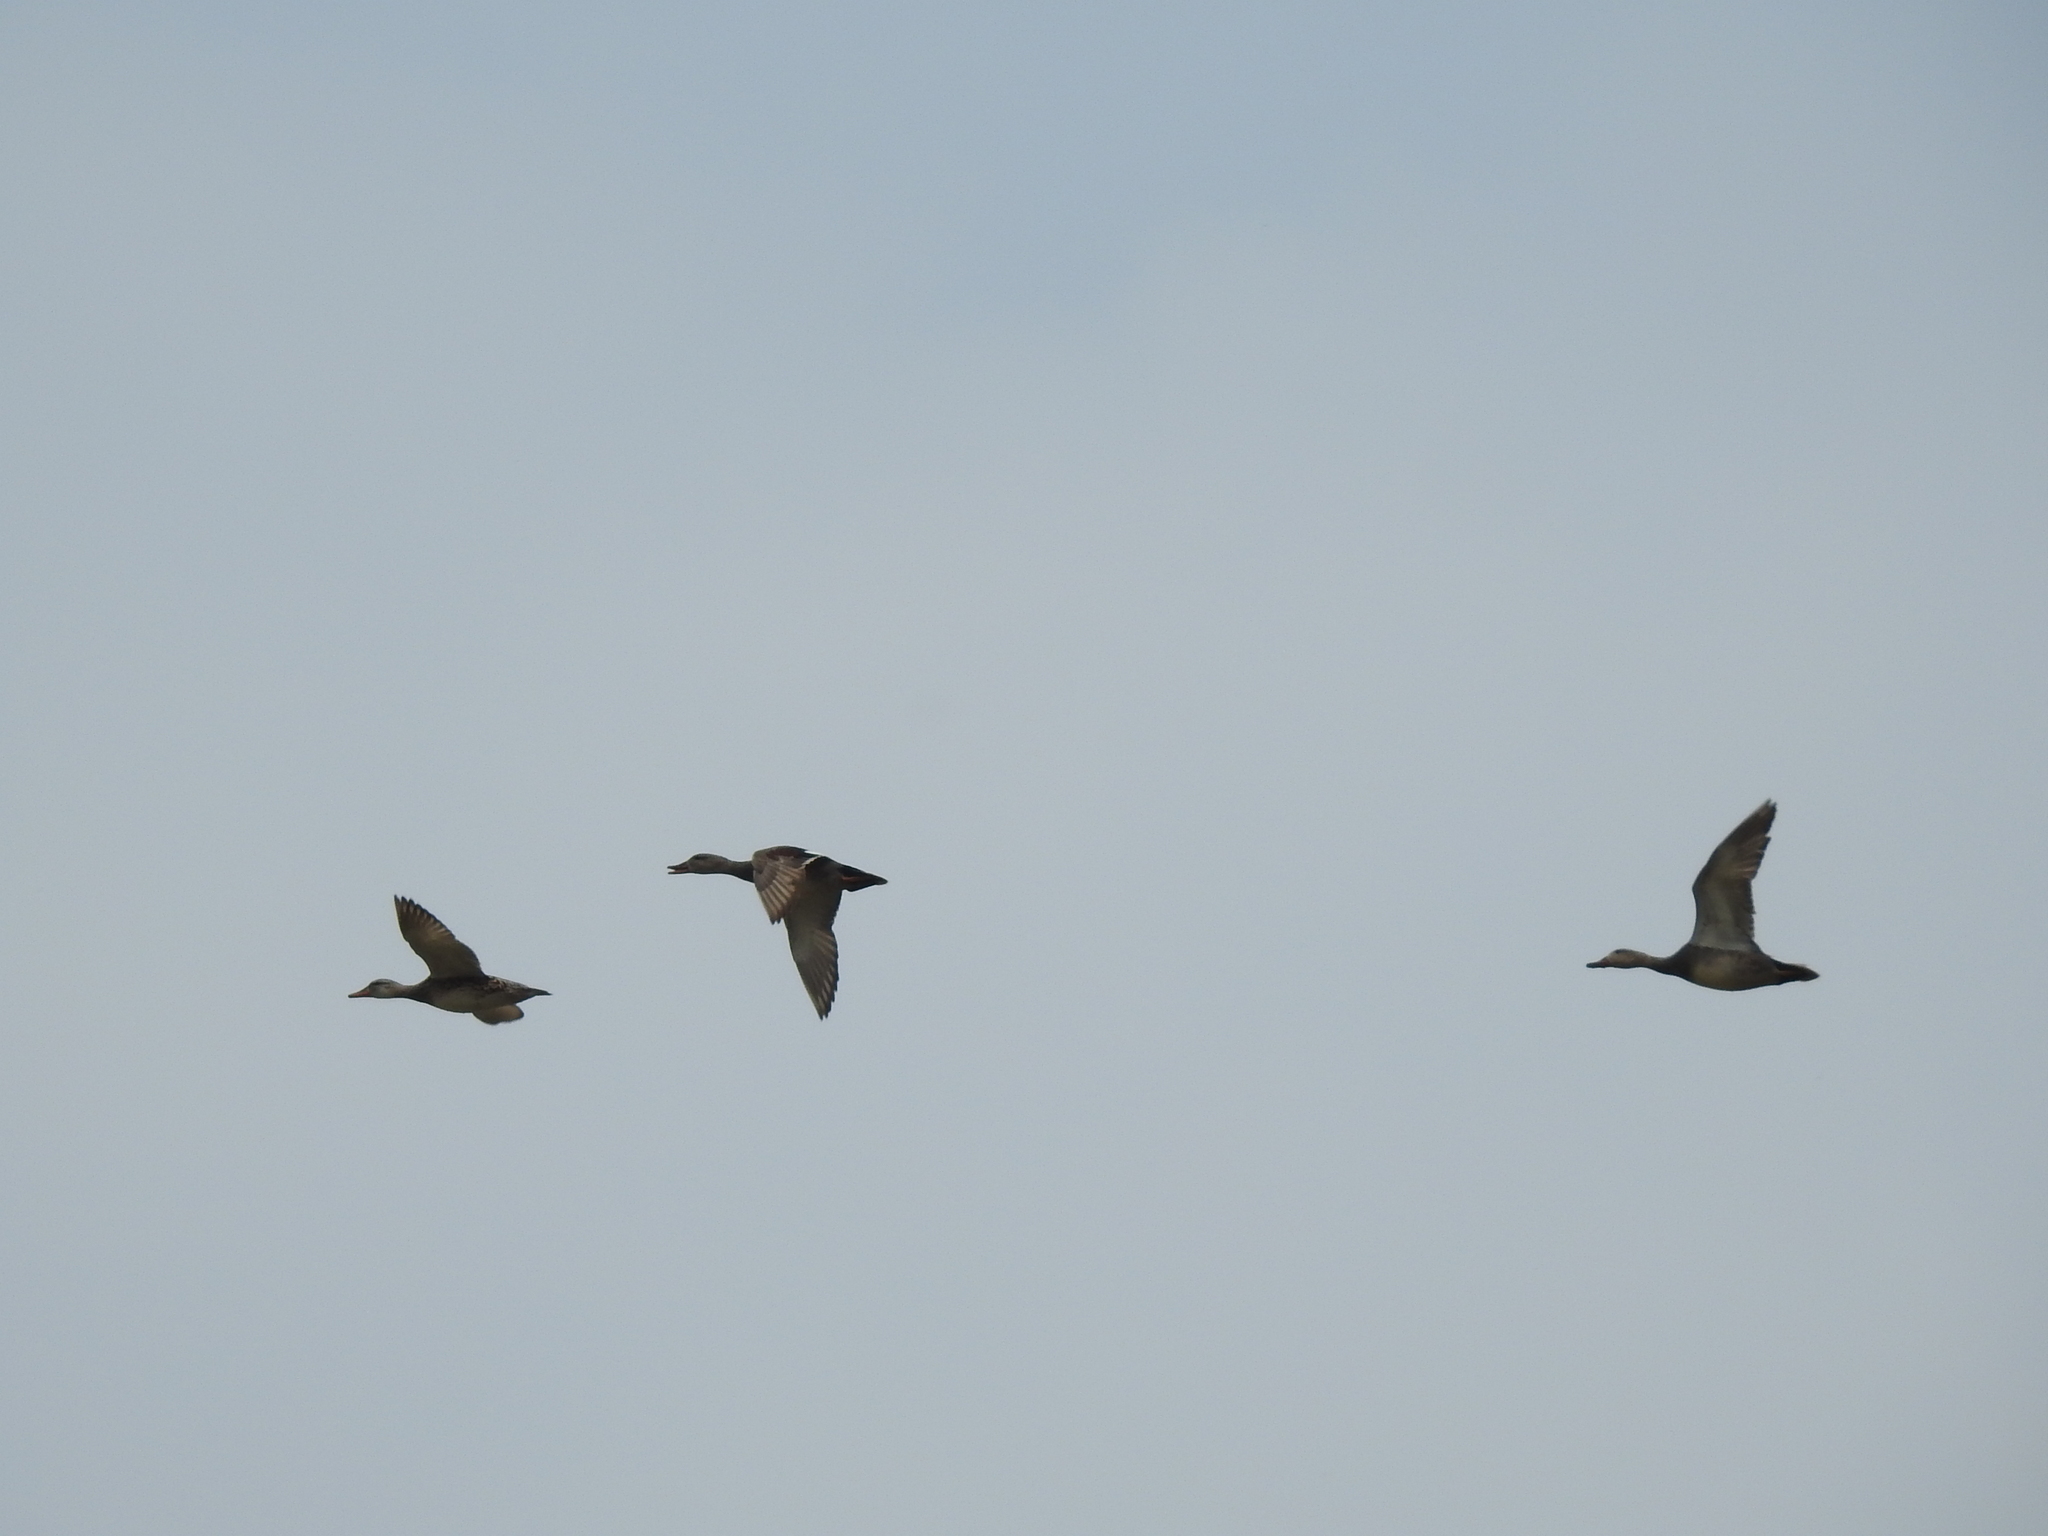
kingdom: Animalia
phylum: Chordata
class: Aves
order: Anseriformes
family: Anatidae
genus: Mareca
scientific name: Mareca strepera
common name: Gadwall
